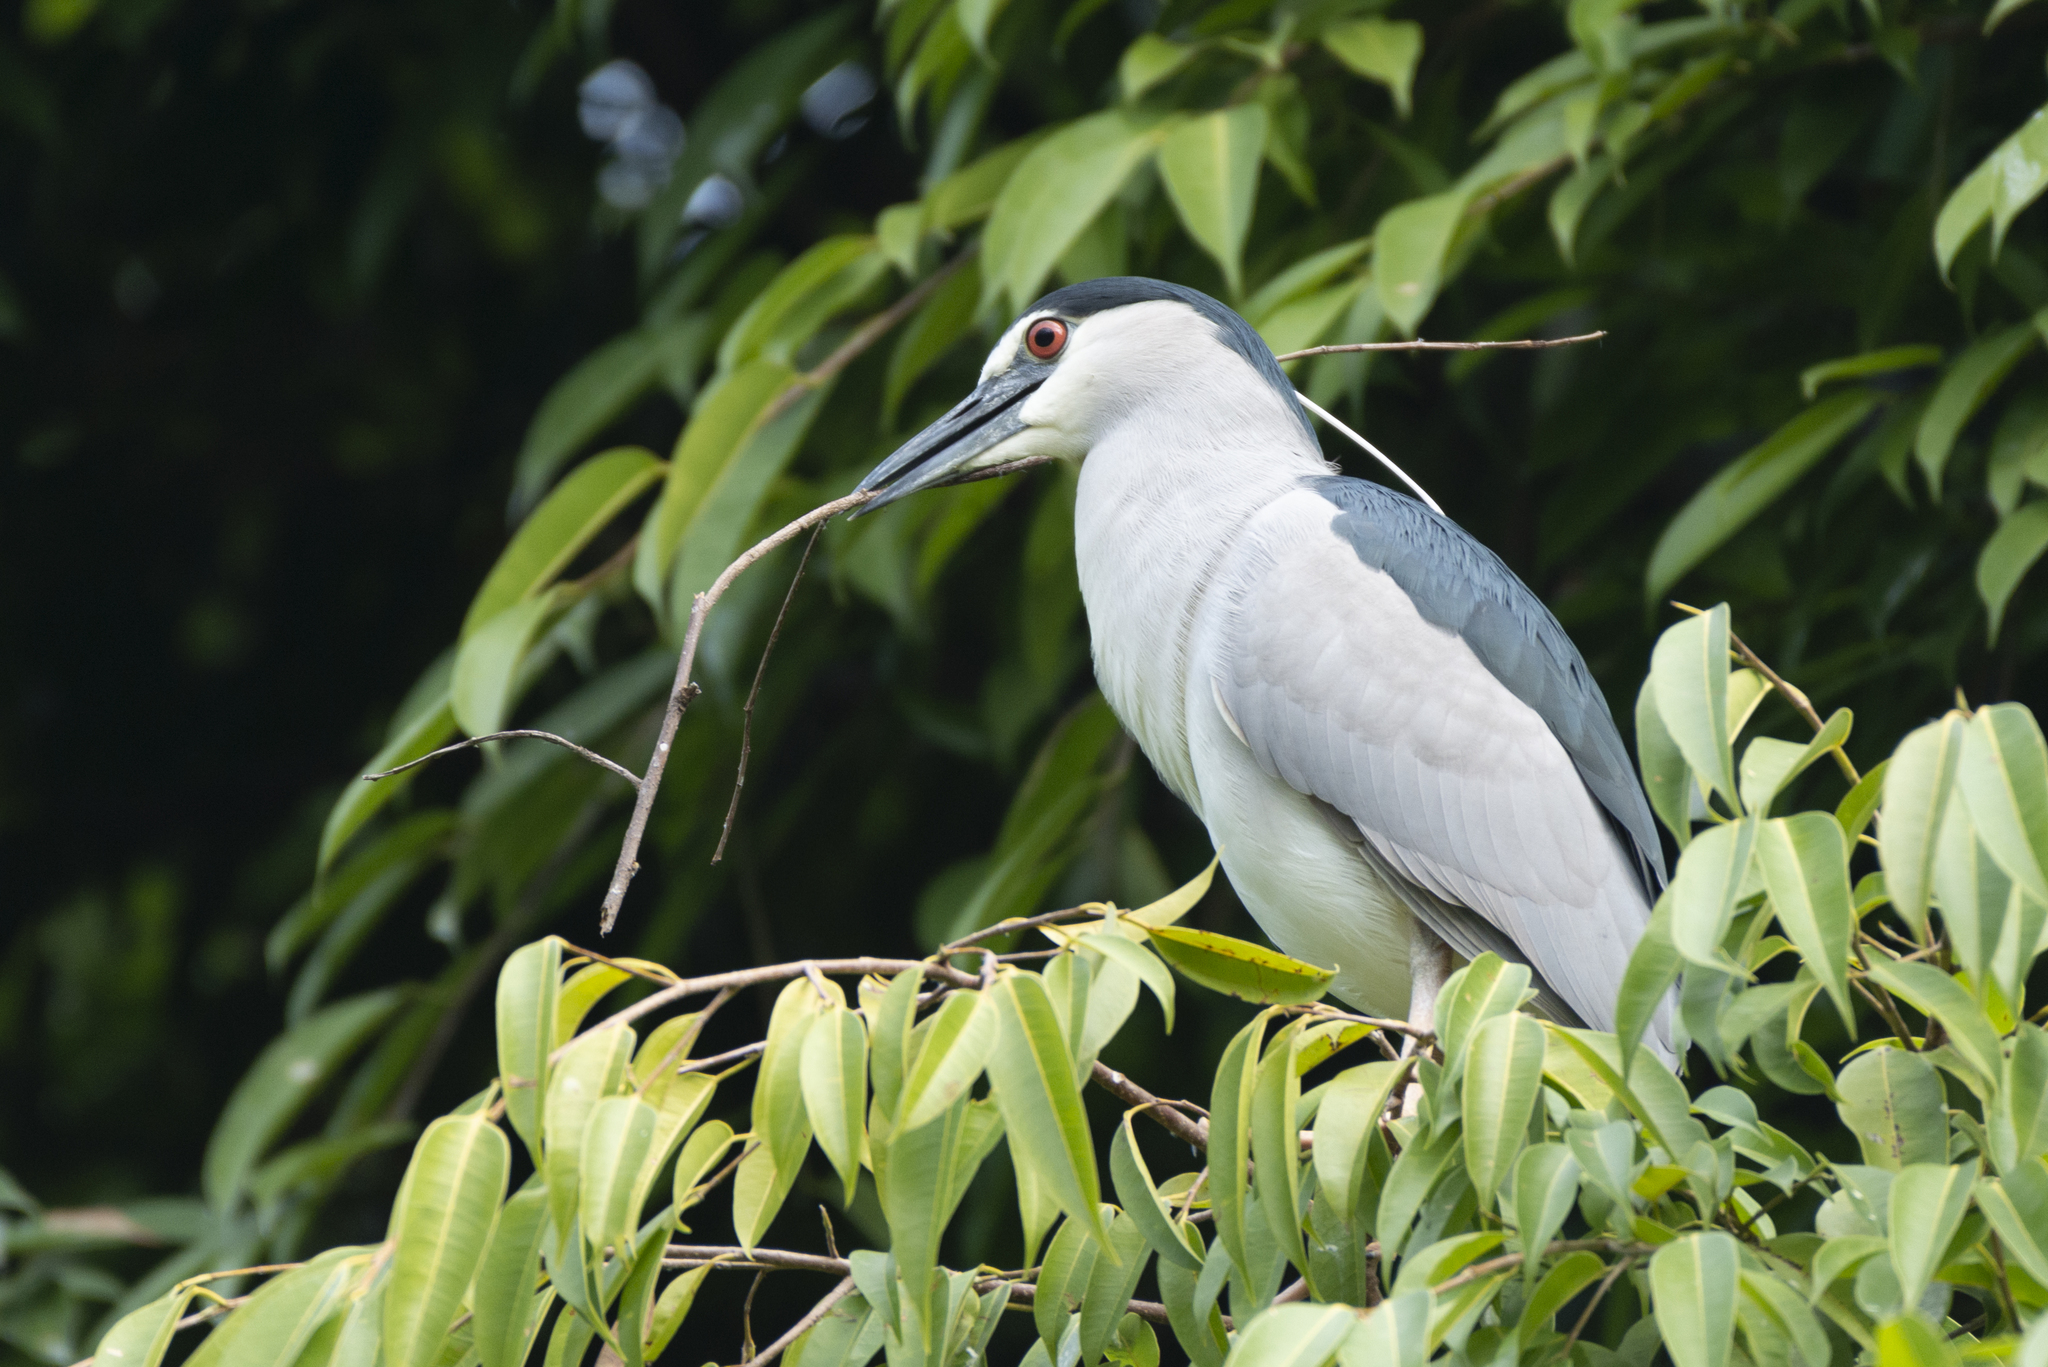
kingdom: Animalia
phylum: Chordata
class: Aves
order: Pelecaniformes
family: Ardeidae
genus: Nycticorax
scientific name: Nycticorax nycticorax
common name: Black-crowned night heron
